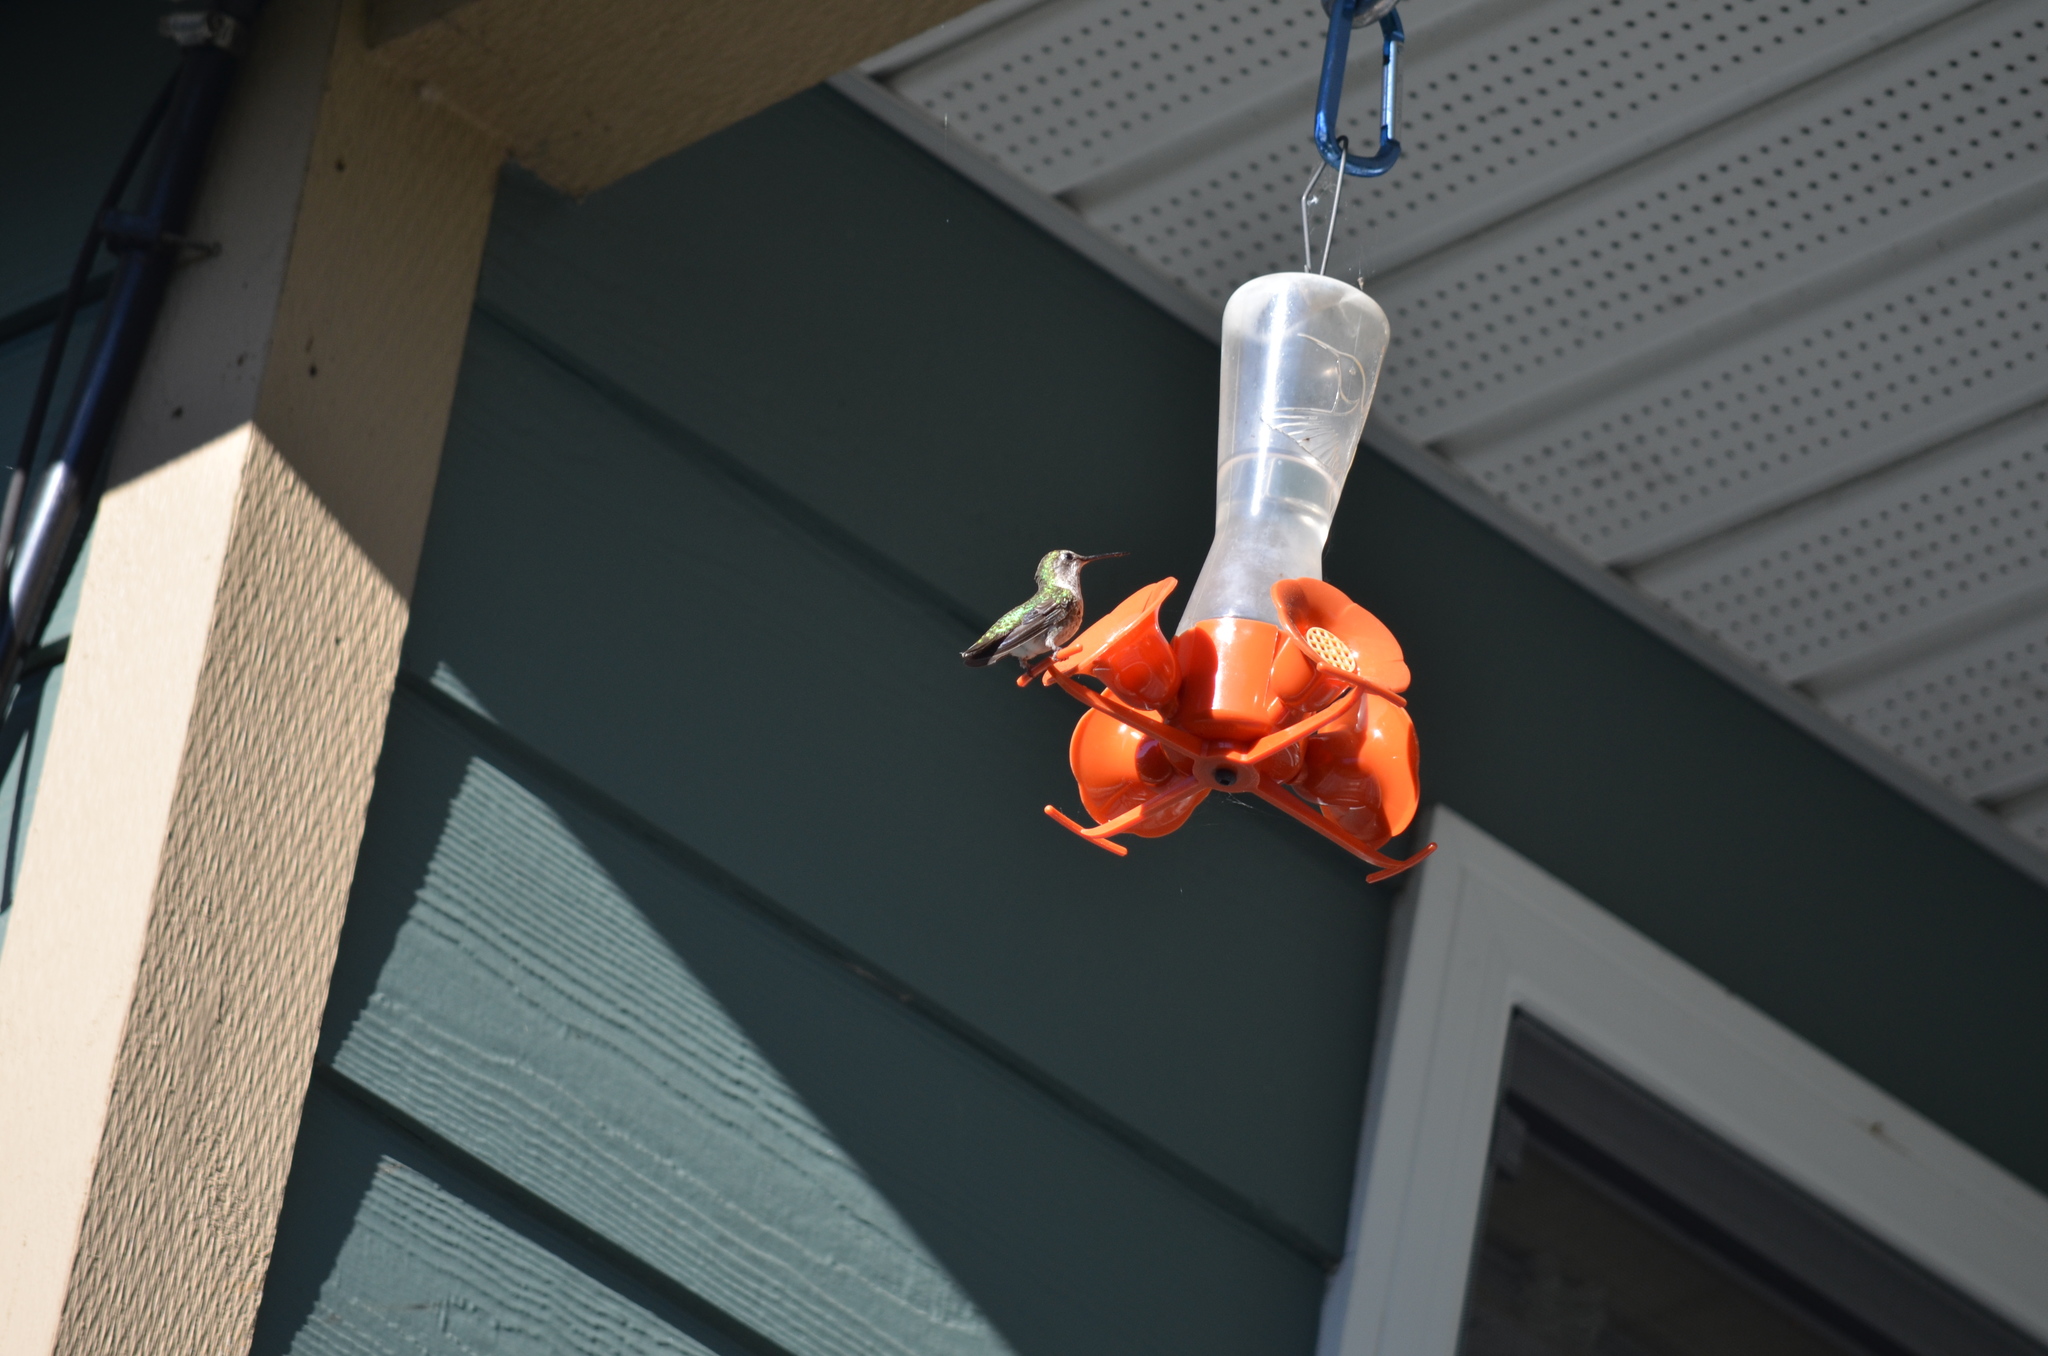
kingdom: Animalia
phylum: Chordata
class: Aves
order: Apodiformes
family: Trochilidae
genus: Calypte
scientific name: Calypte anna
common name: Anna's hummingbird
